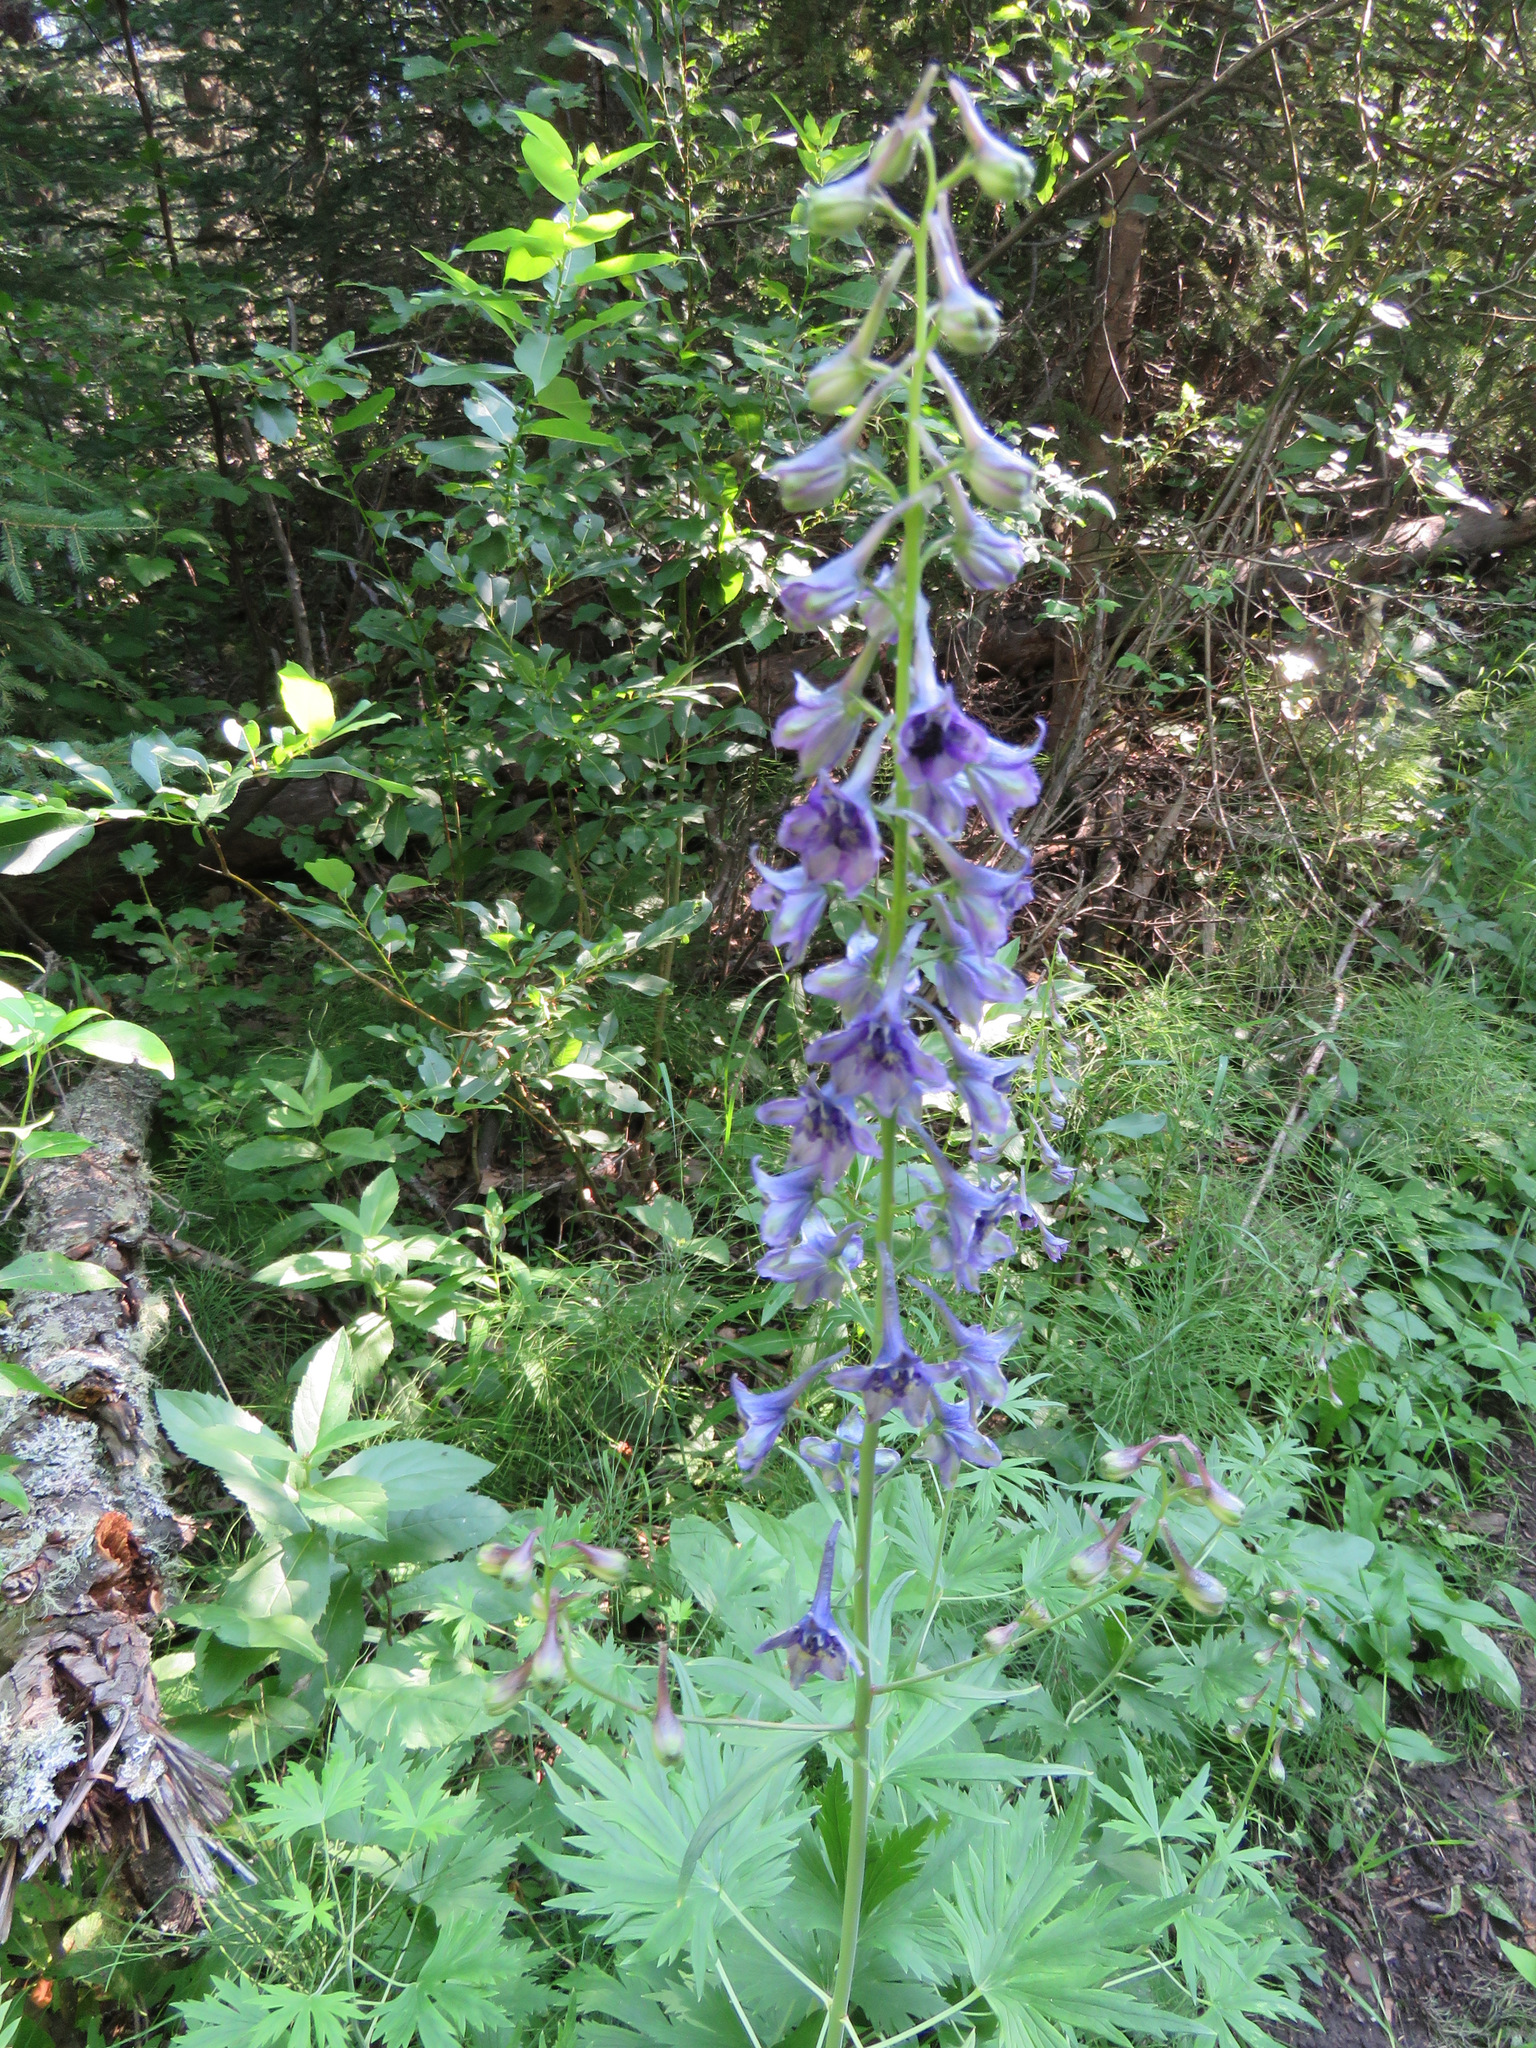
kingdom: Plantae
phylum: Tracheophyta
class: Magnoliopsida
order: Ranunculales
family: Ranunculaceae
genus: Delphinium
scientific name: Delphinium glaucum
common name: Brown's larkspur
